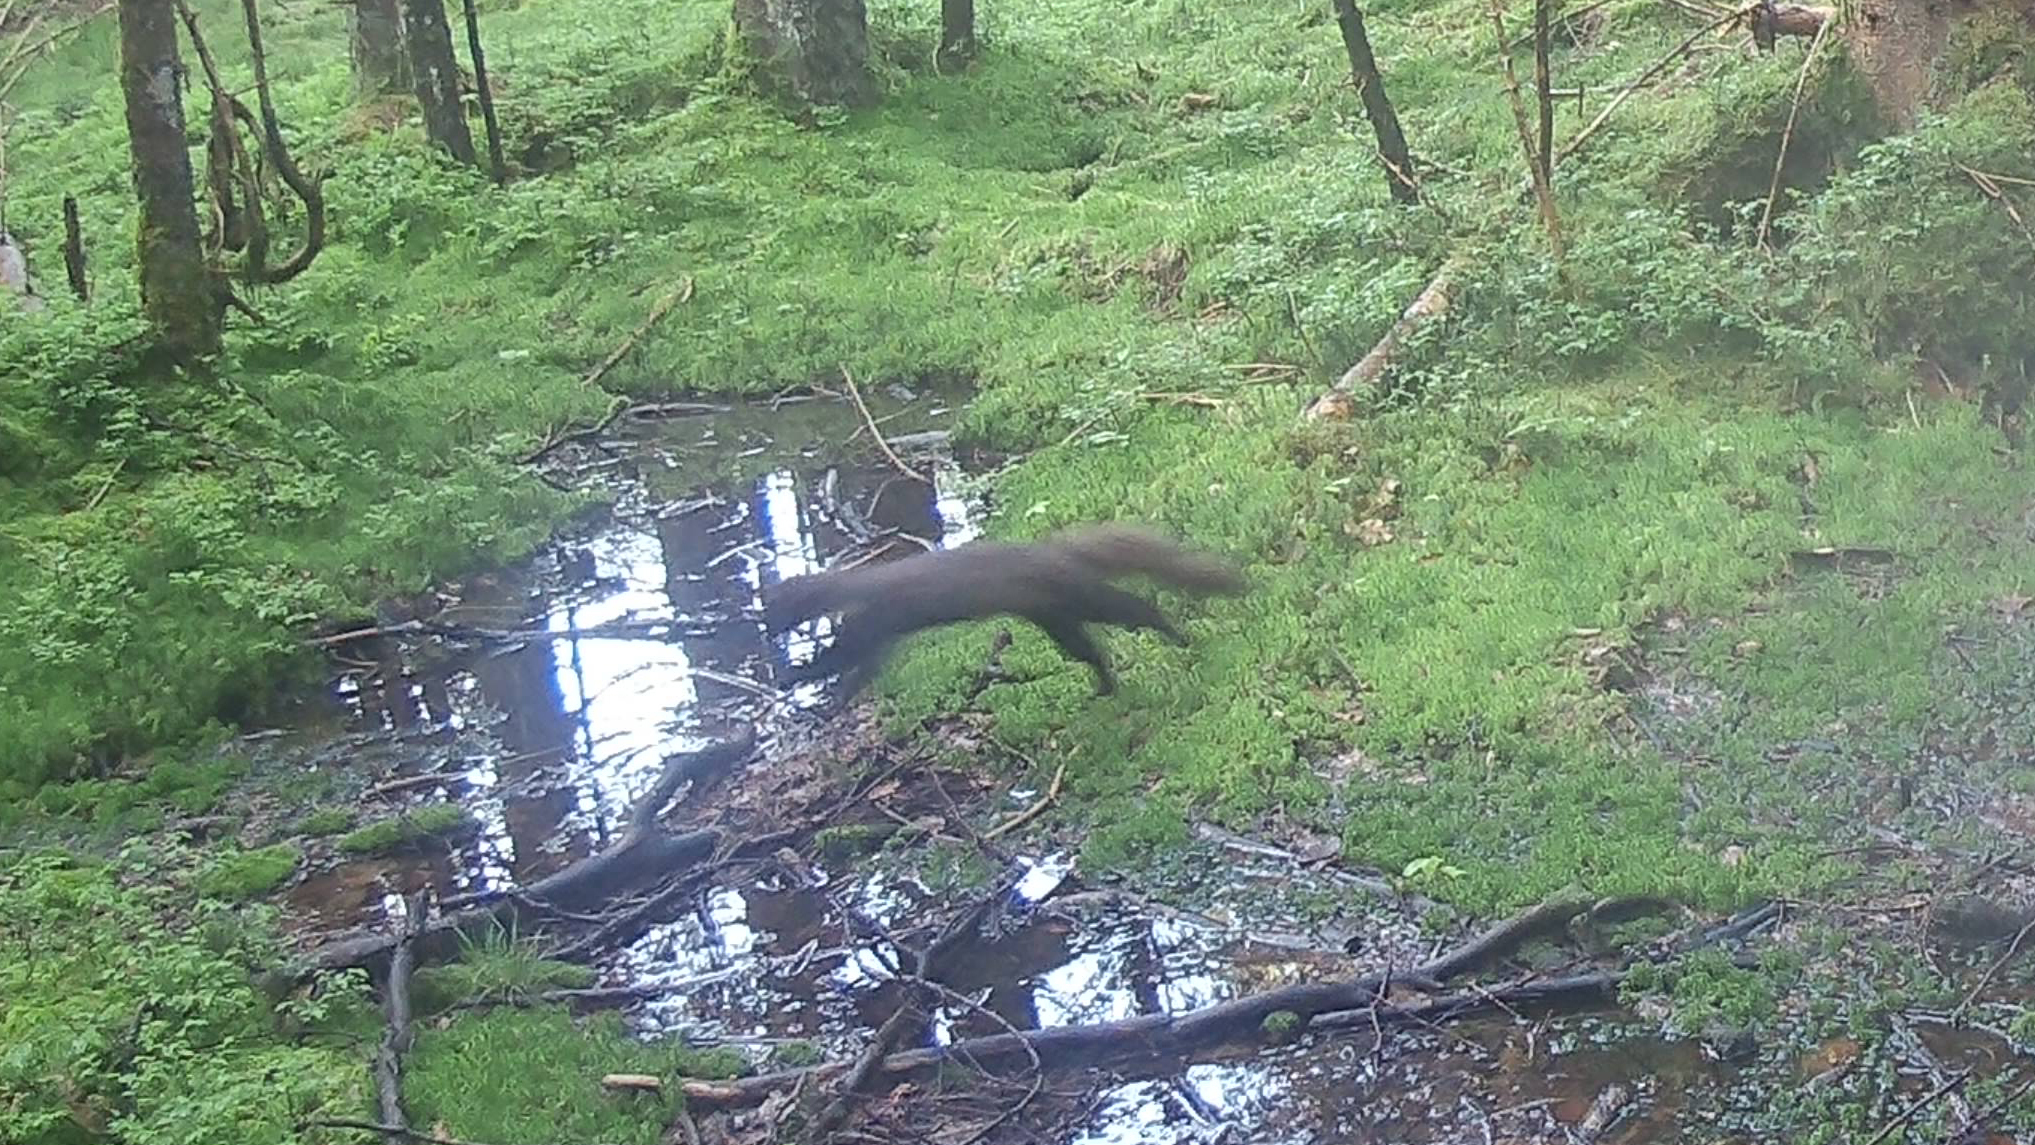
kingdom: Animalia
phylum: Chordata
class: Mammalia
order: Carnivora
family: Mustelidae
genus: Martes
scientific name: Martes martes
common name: European pine marten
